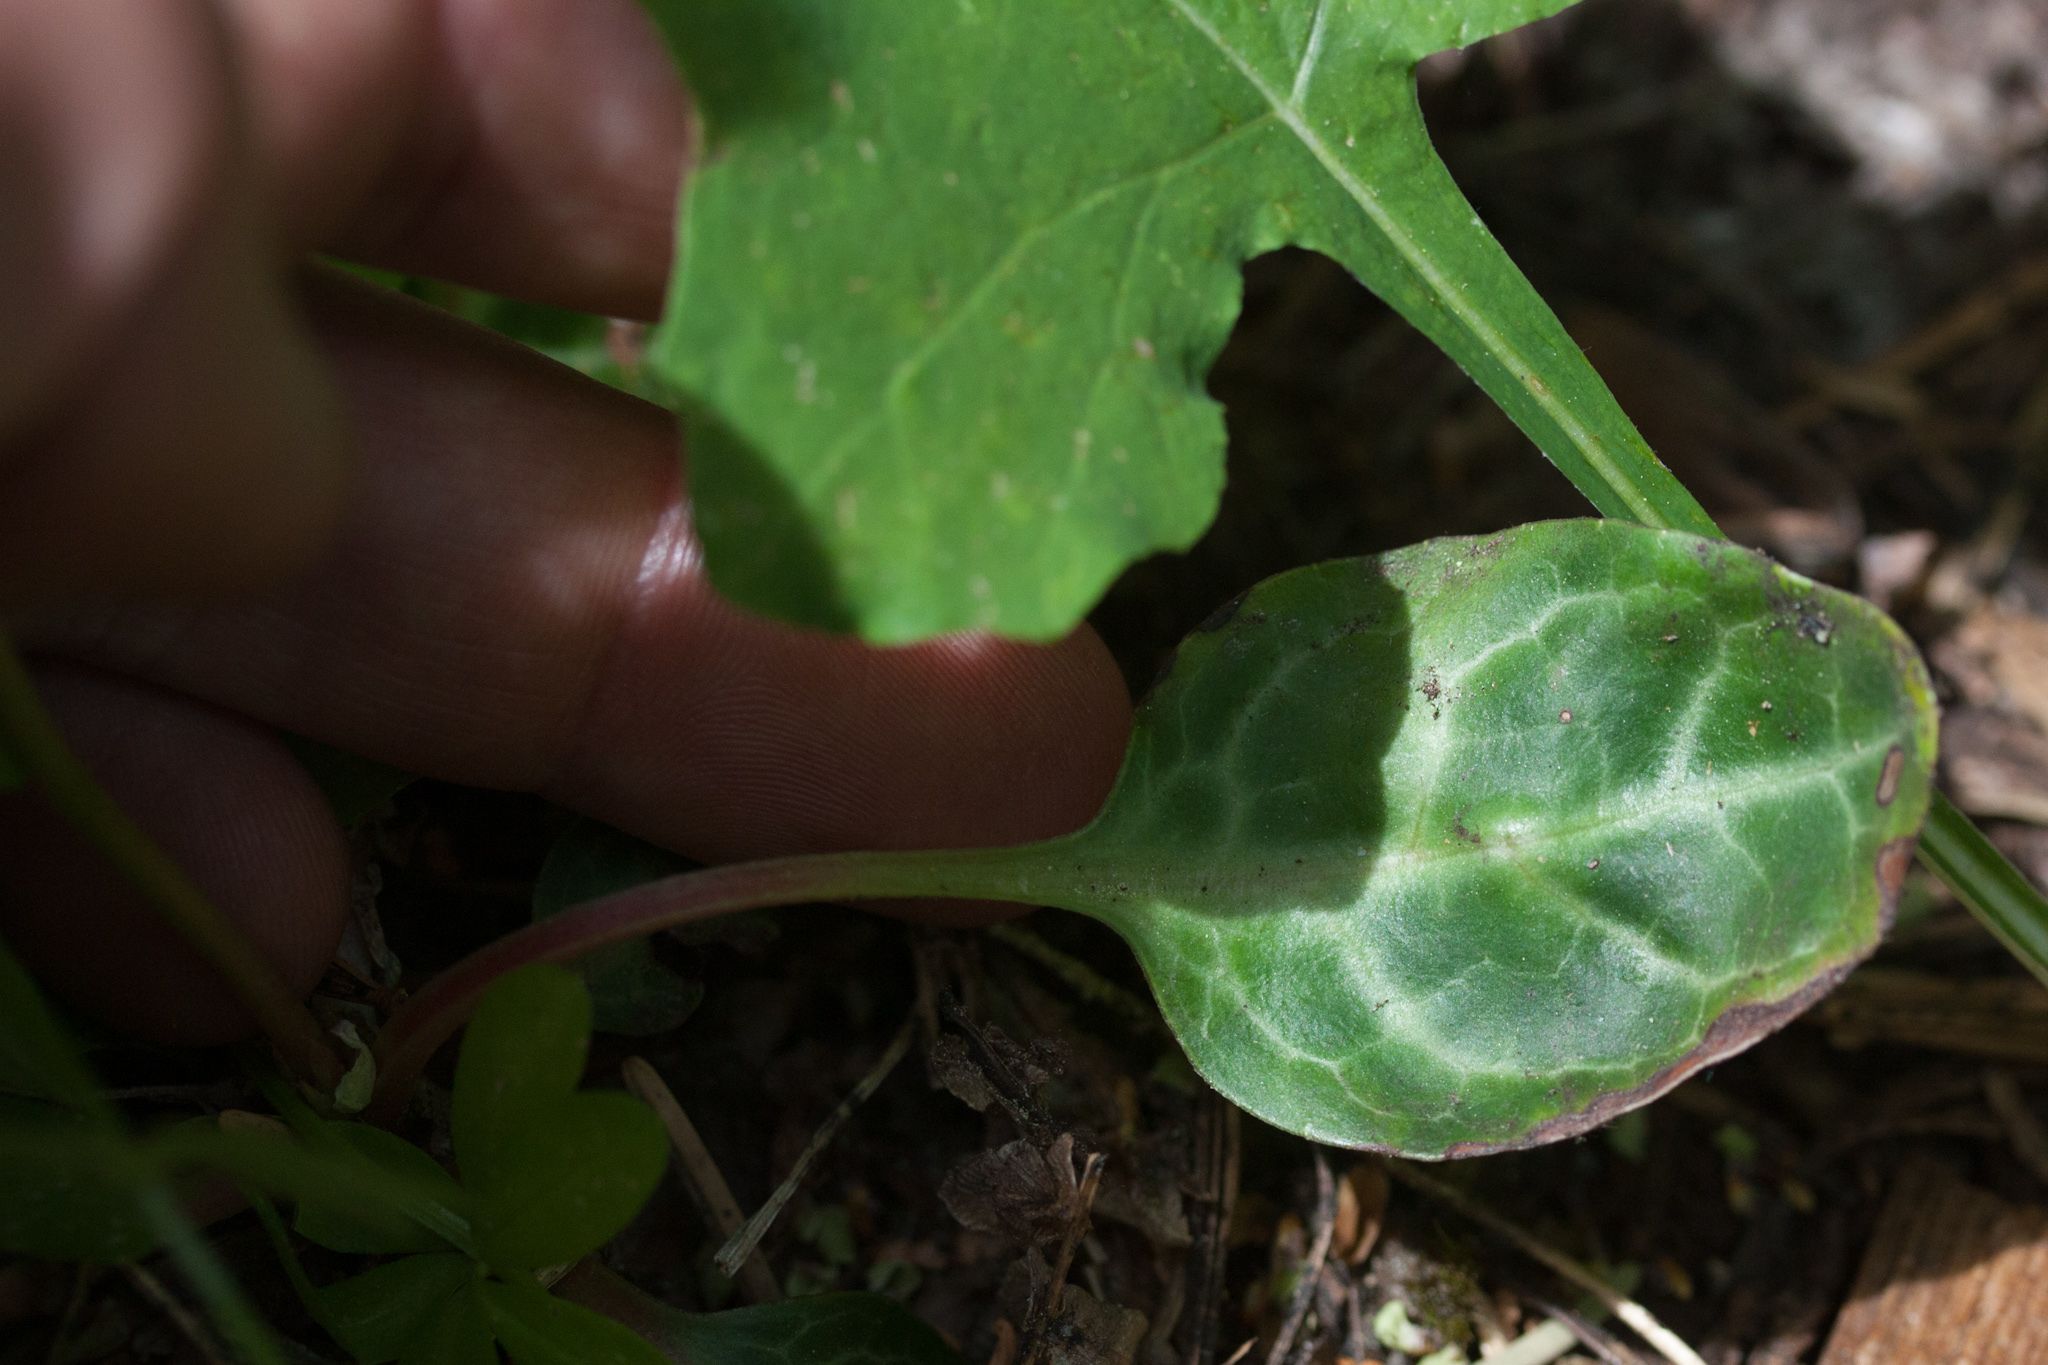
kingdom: Plantae
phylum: Tracheophyta
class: Magnoliopsida
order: Ericales
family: Ericaceae
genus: Pyrola
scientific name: Pyrola picta
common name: White-vein wintergreen
